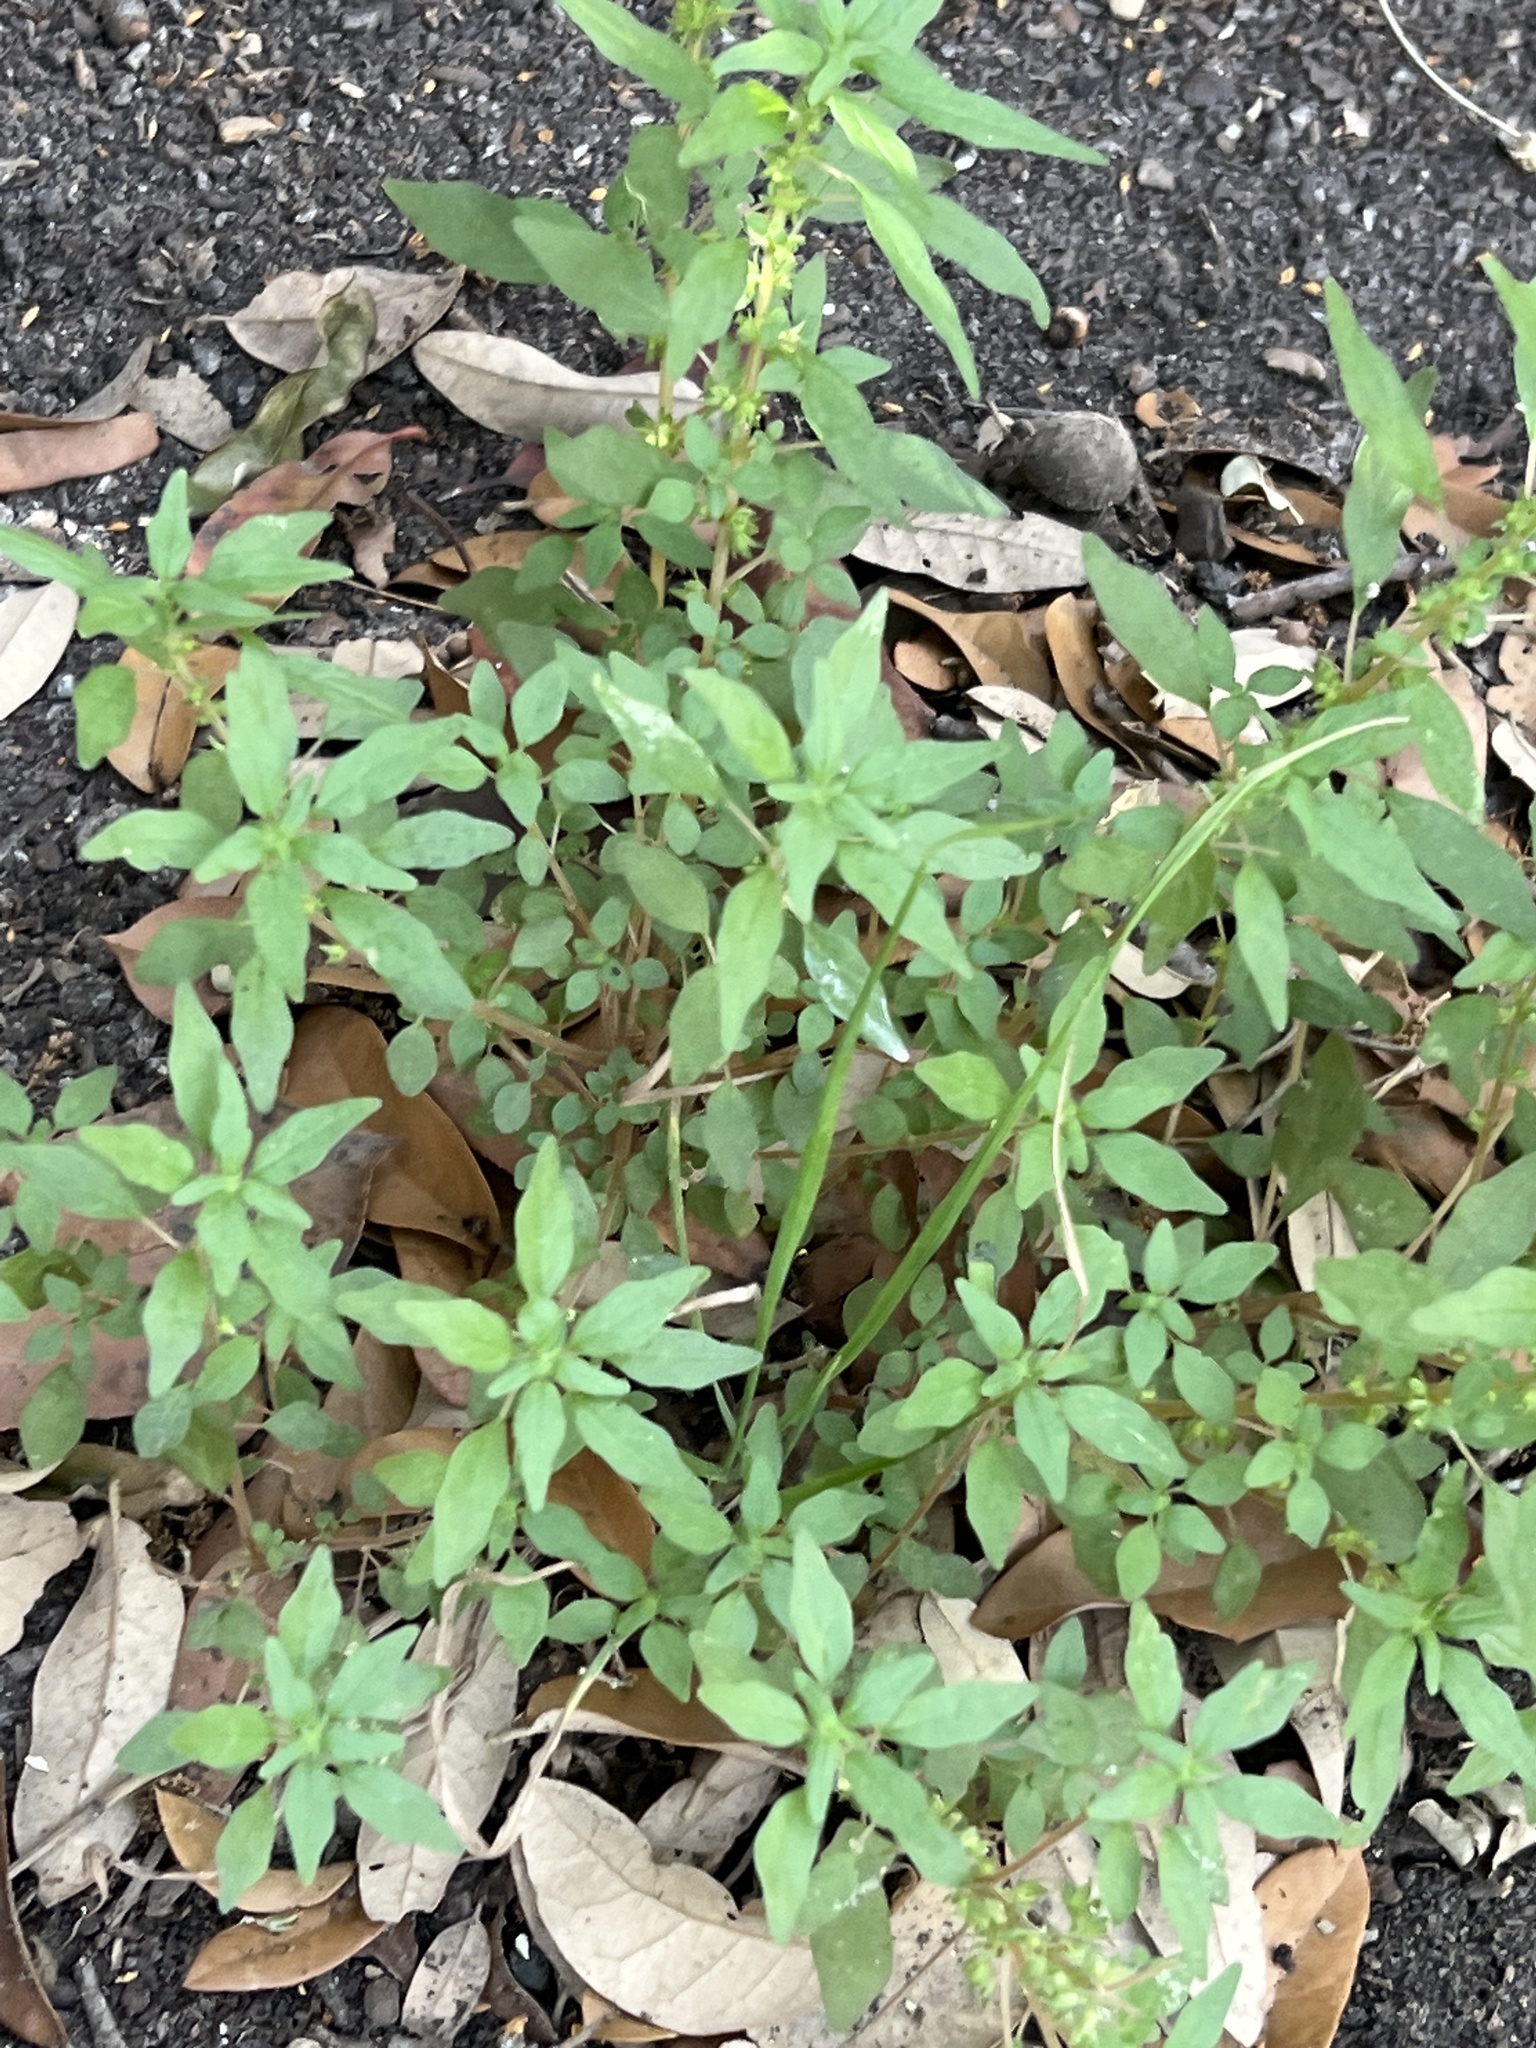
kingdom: Plantae
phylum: Tracheophyta
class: Magnoliopsida
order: Rosales
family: Urticaceae
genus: Parietaria
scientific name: Parietaria pensylvanica
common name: Pennsylvania pellitory
